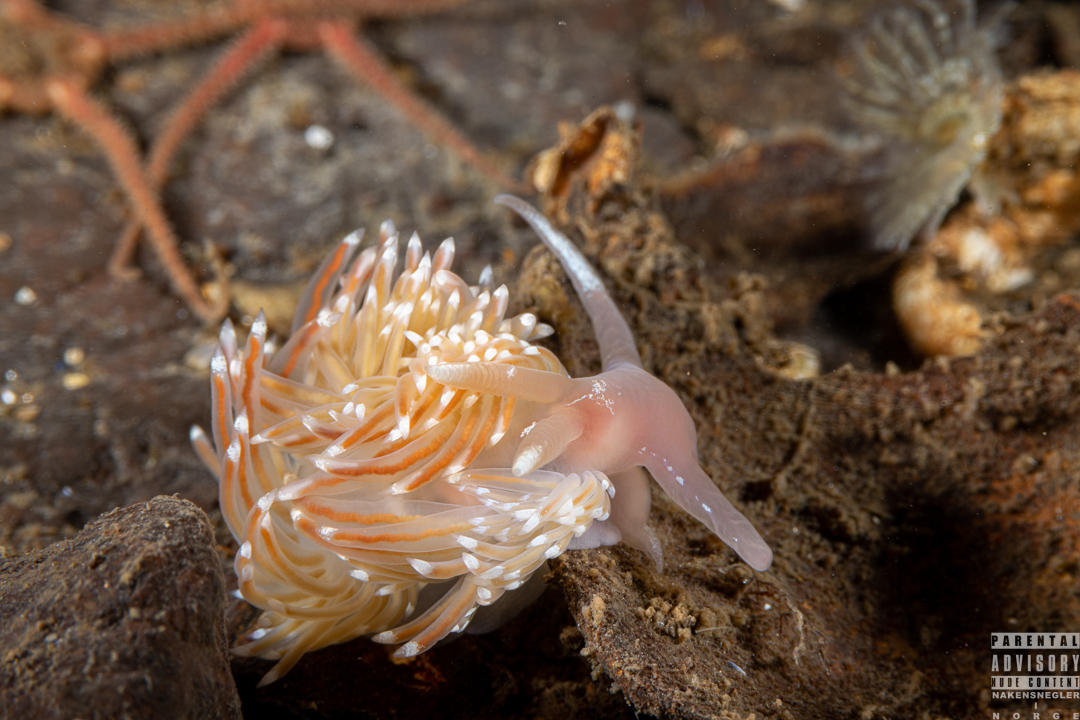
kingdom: Animalia
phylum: Mollusca
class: Gastropoda
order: Nudibranchia
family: Facelinidae
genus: Facelina
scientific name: Facelina bostoniensis
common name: Boston facelina
